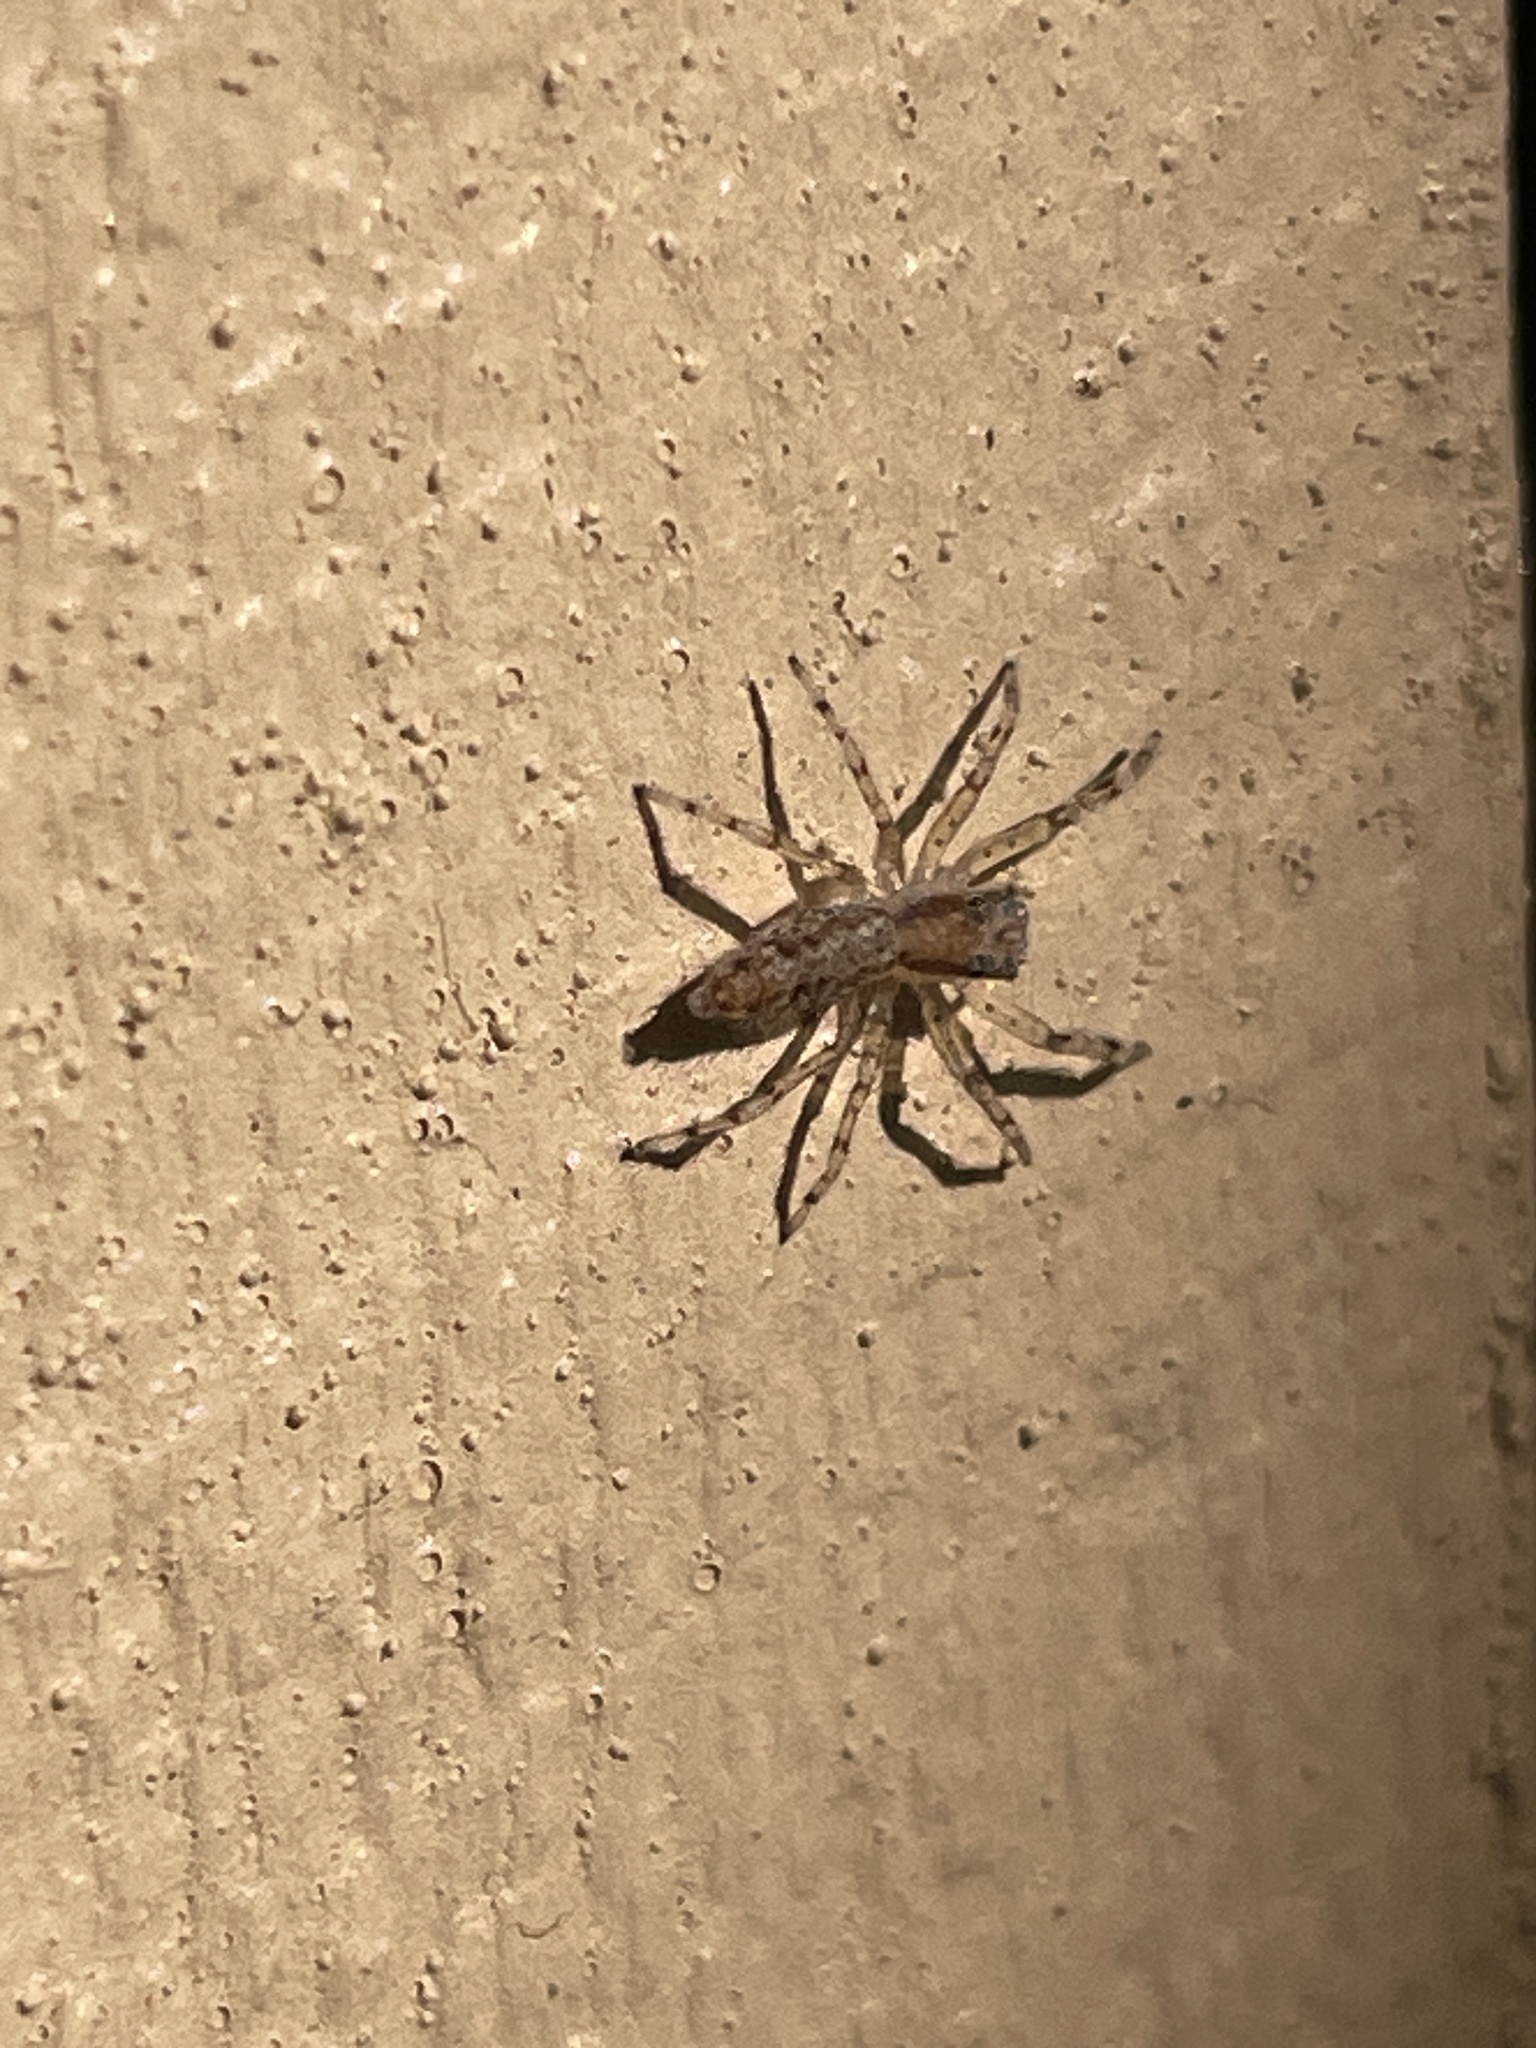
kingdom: Animalia
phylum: Arthropoda
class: Arachnida
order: Araneae
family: Salticidae
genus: Helpis
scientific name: Helpis minitabunda
